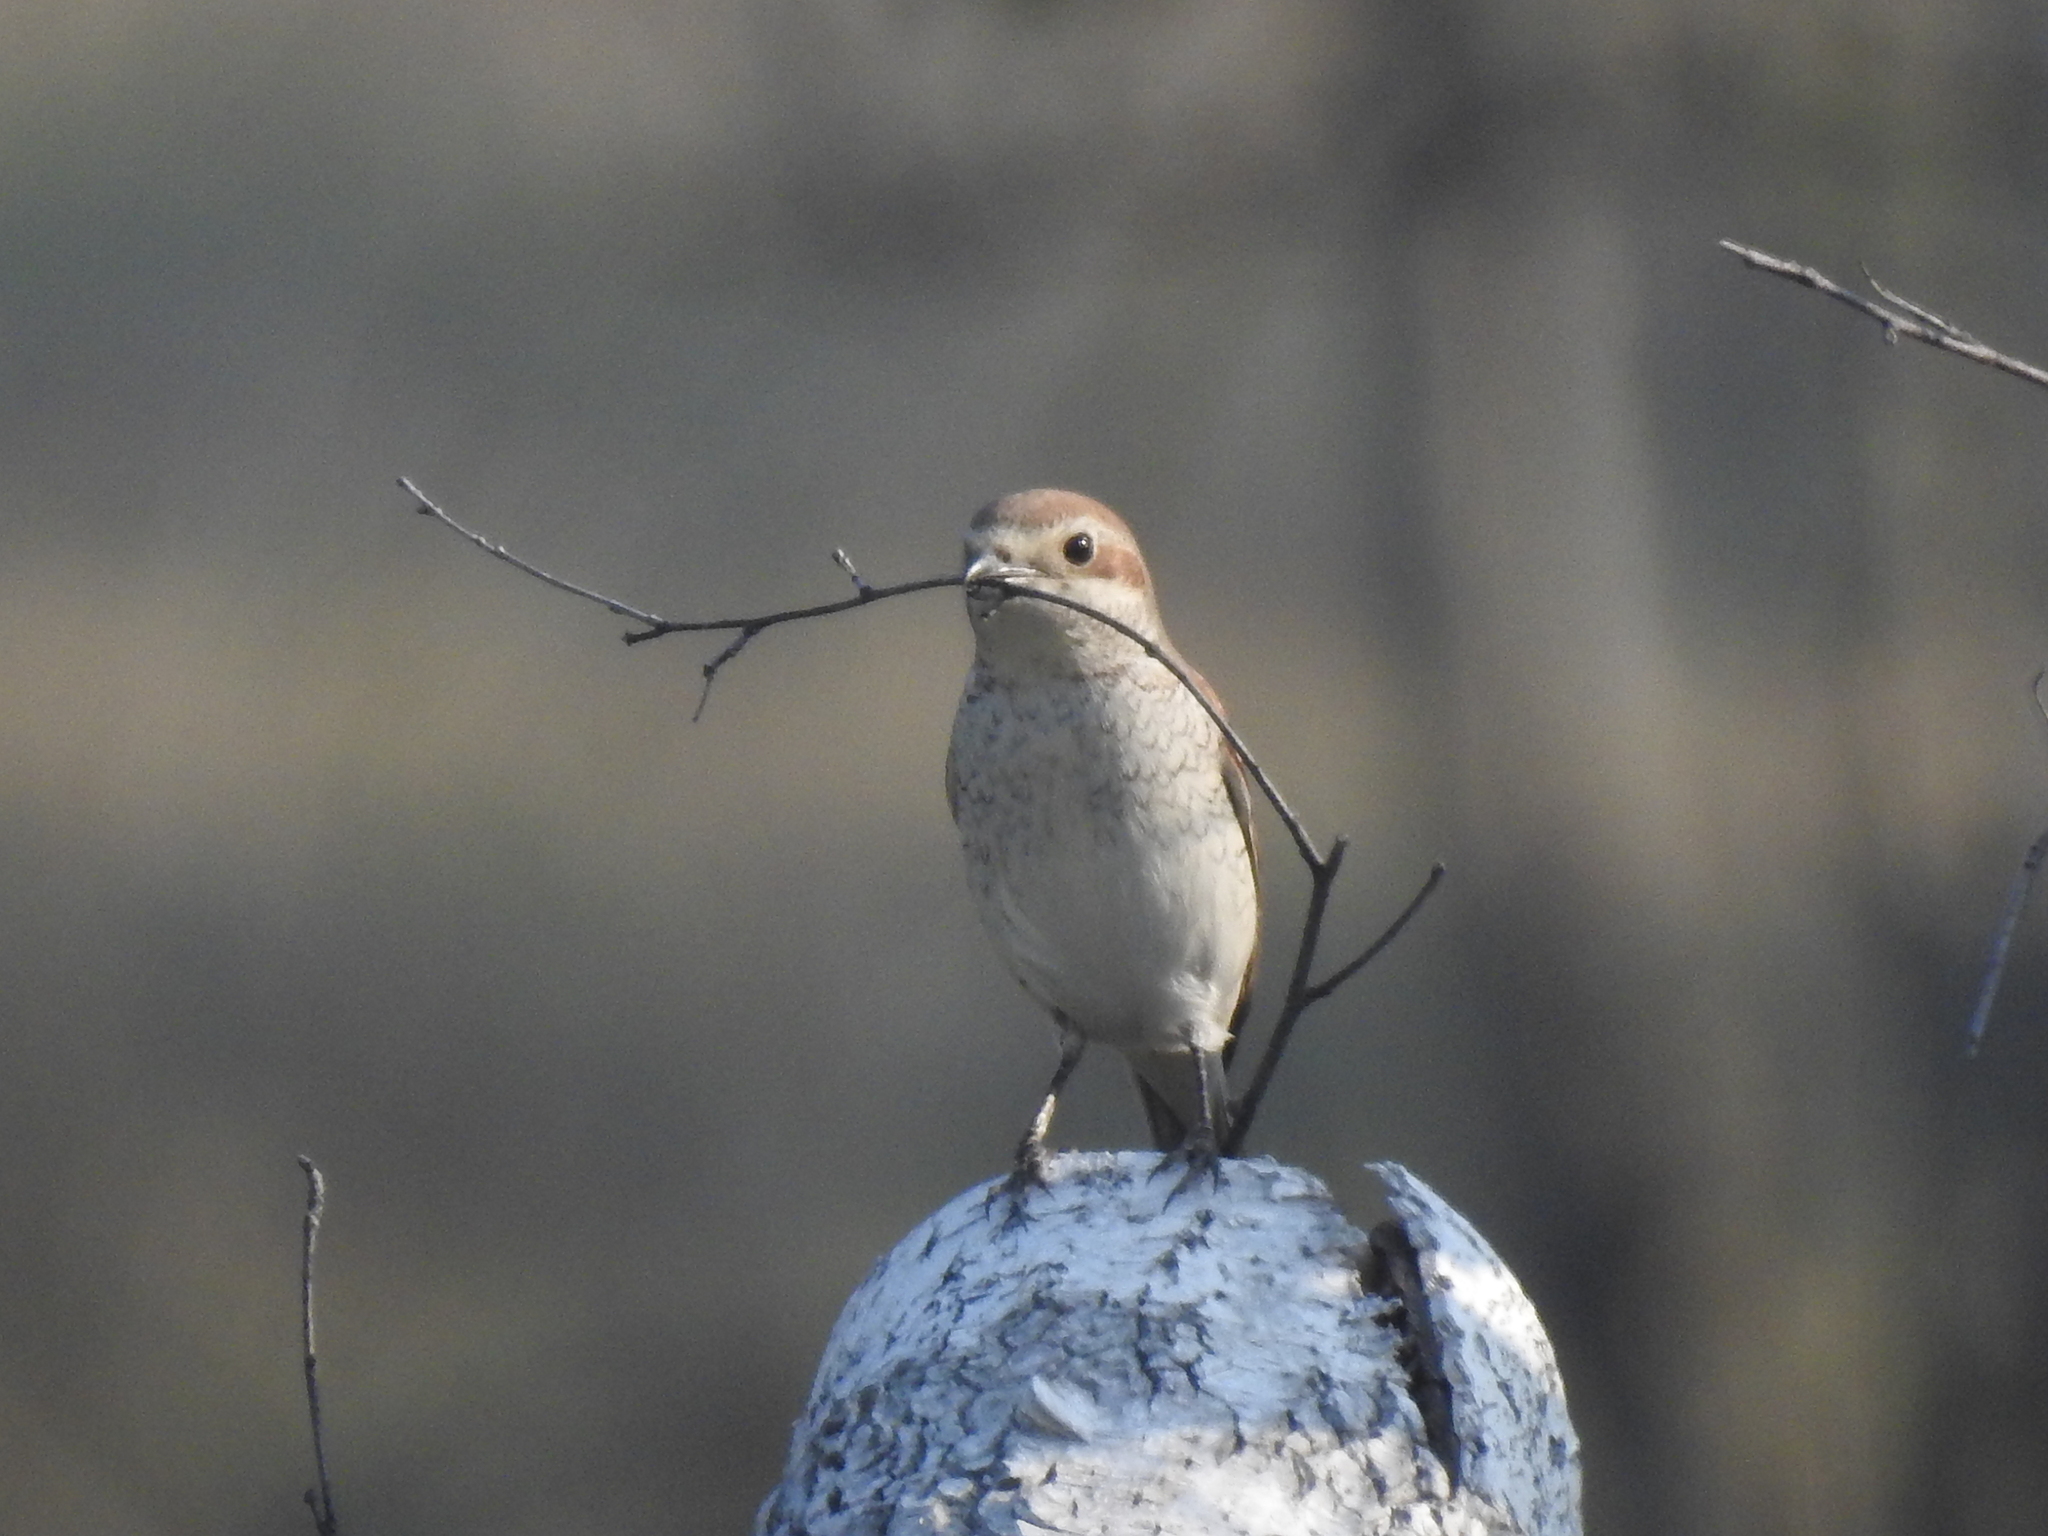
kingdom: Animalia
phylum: Chordata
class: Aves
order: Passeriformes
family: Laniidae
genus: Lanius
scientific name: Lanius collurio
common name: Red-backed shrike
